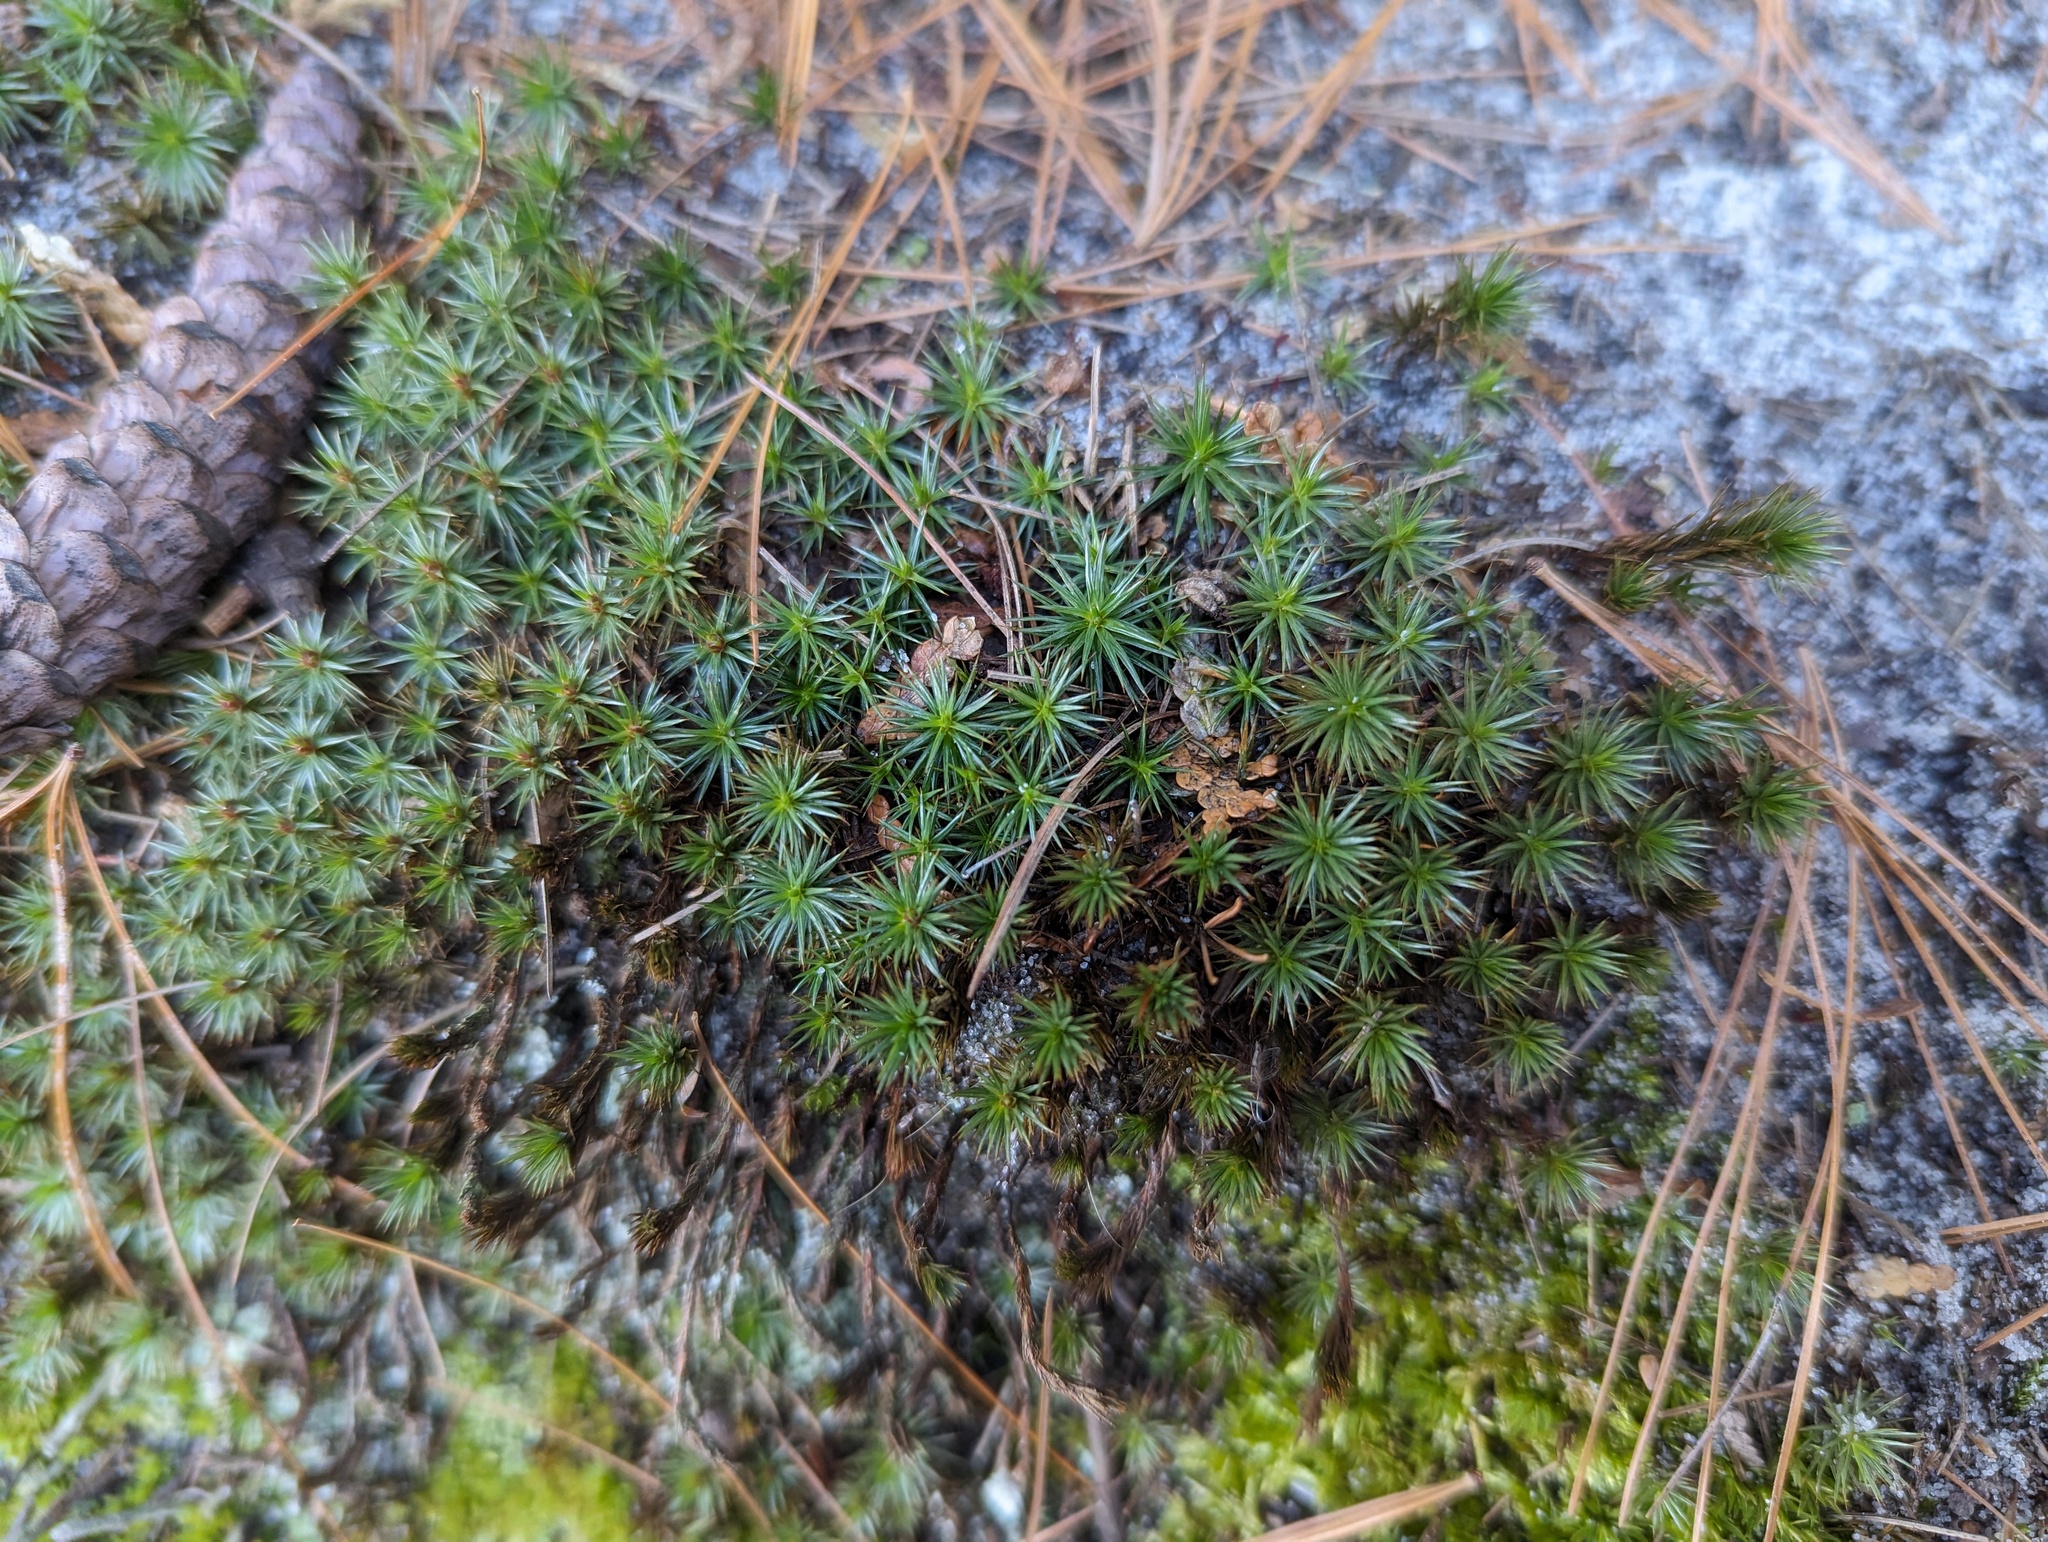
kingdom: Plantae
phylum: Bryophyta
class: Polytrichopsida
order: Polytrichales
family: Polytrichaceae
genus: Polytrichum
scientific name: Polytrichum juniperinum
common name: Juniper haircap moss
